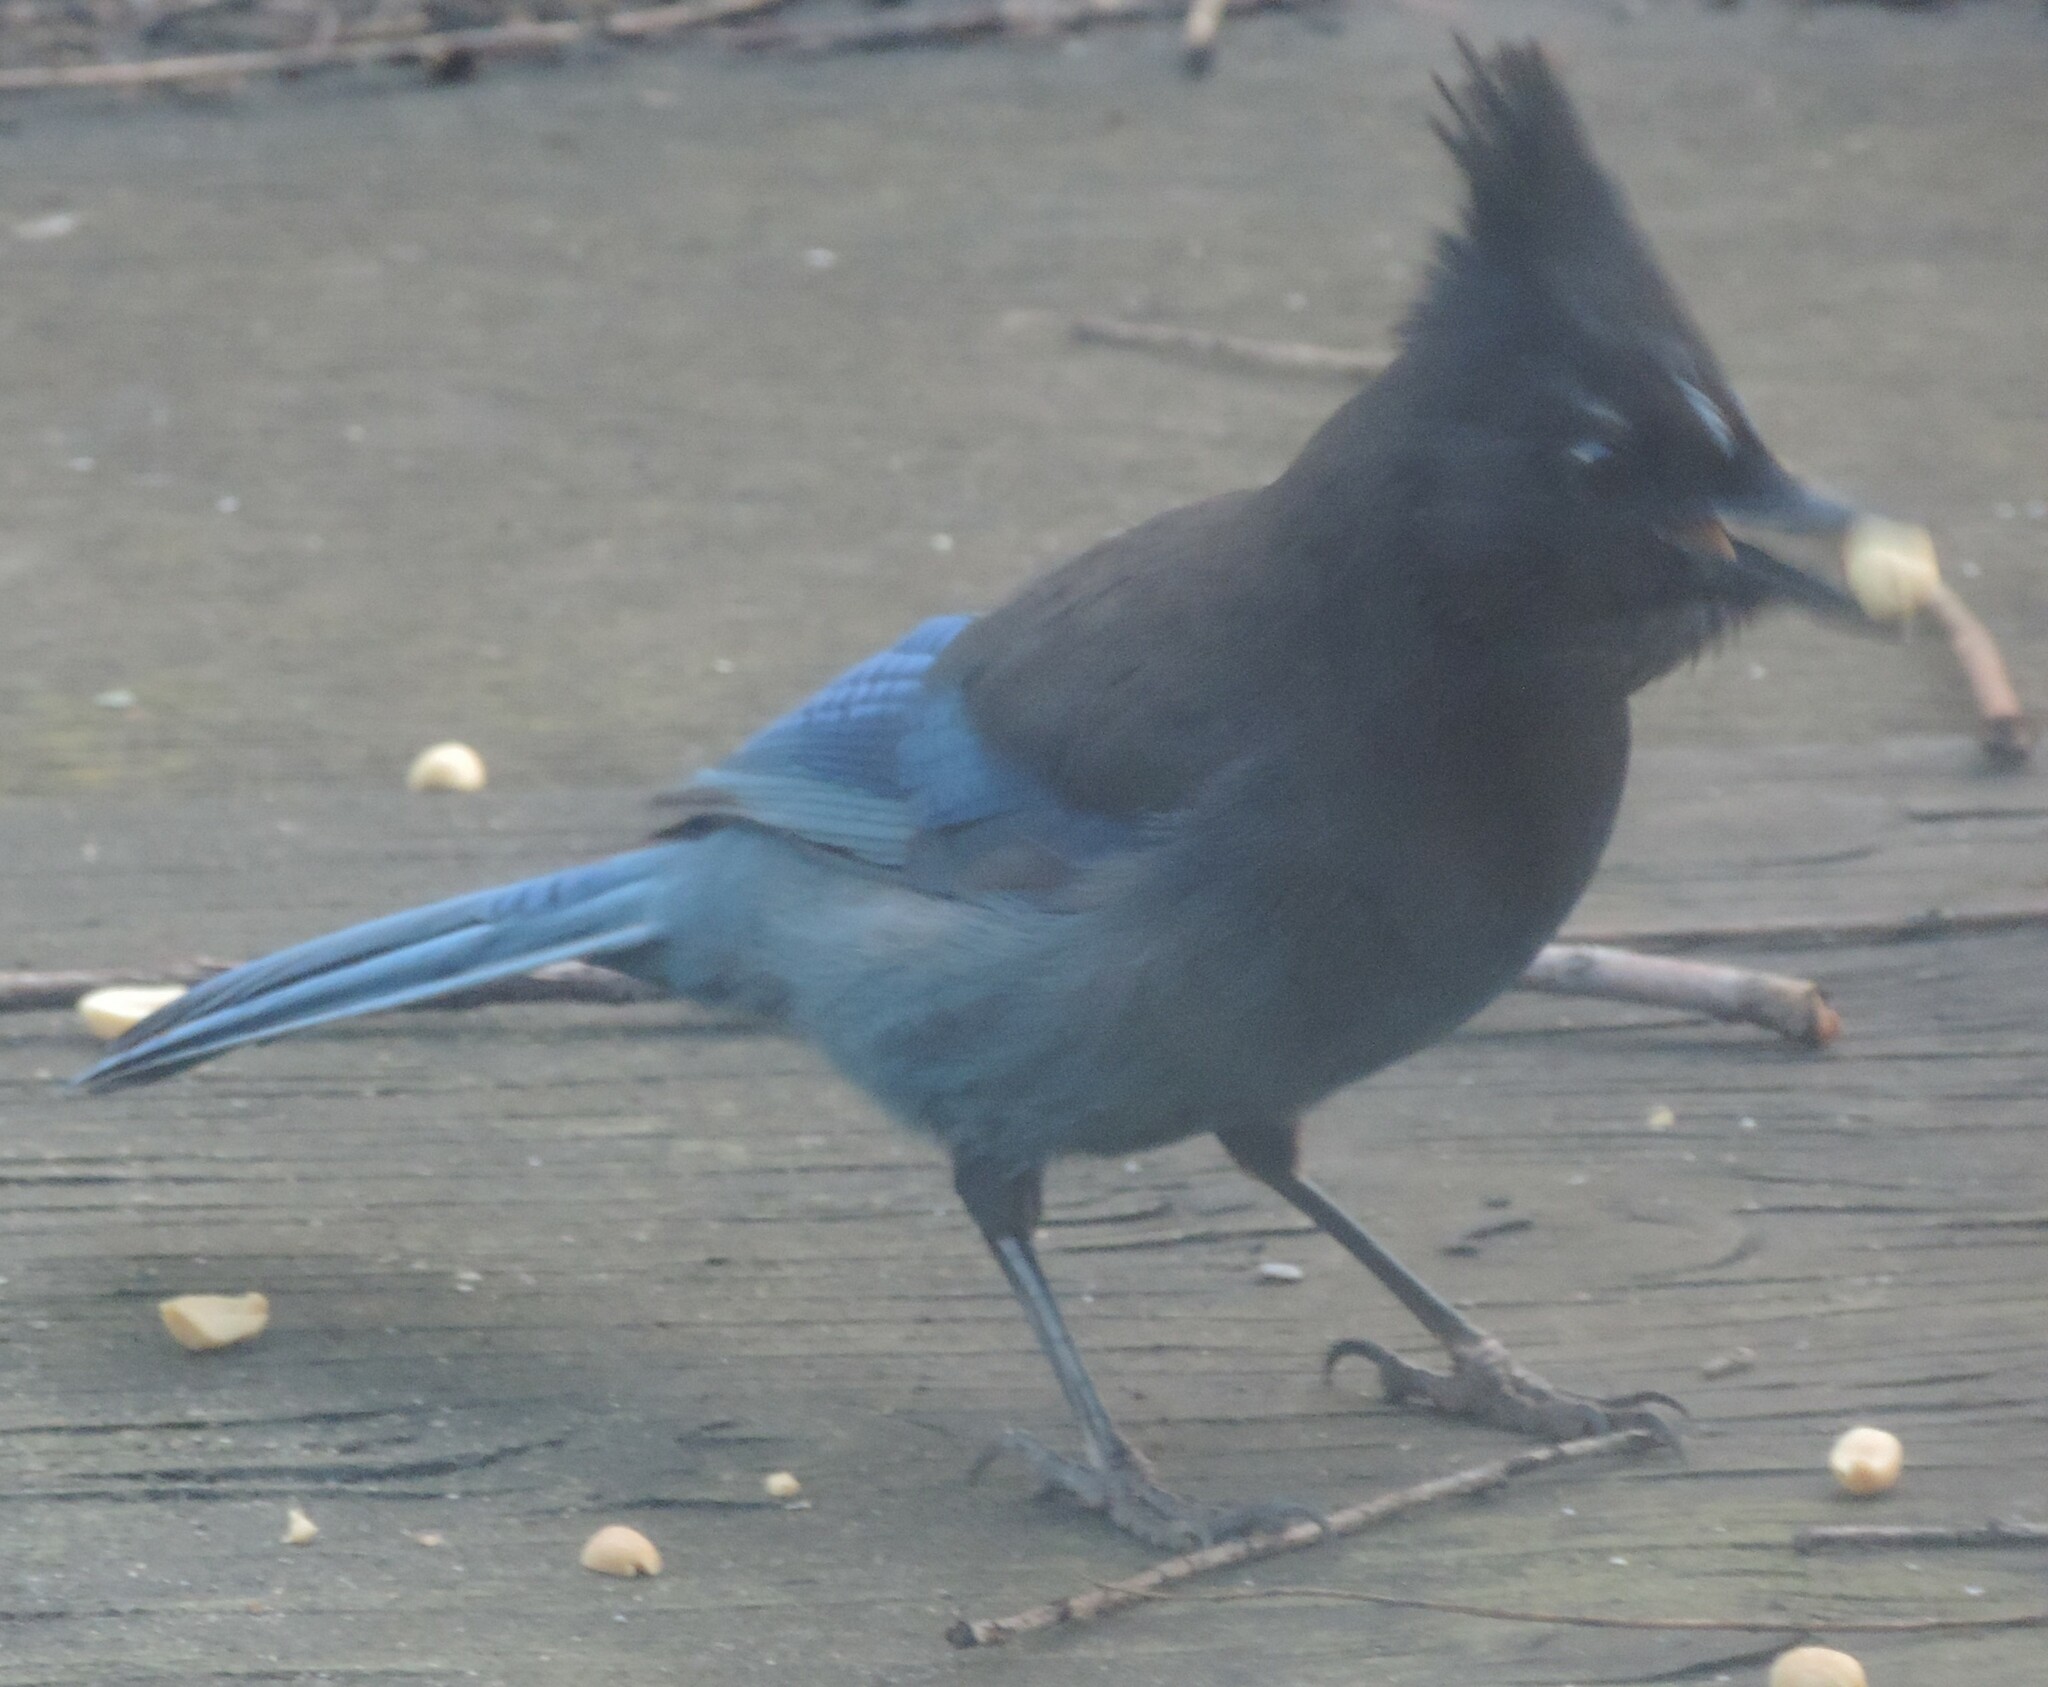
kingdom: Animalia
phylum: Chordata
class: Aves
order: Passeriformes
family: Corvidae
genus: Cyanocitta
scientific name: Cyanocitta stelleri
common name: Steller's jay
